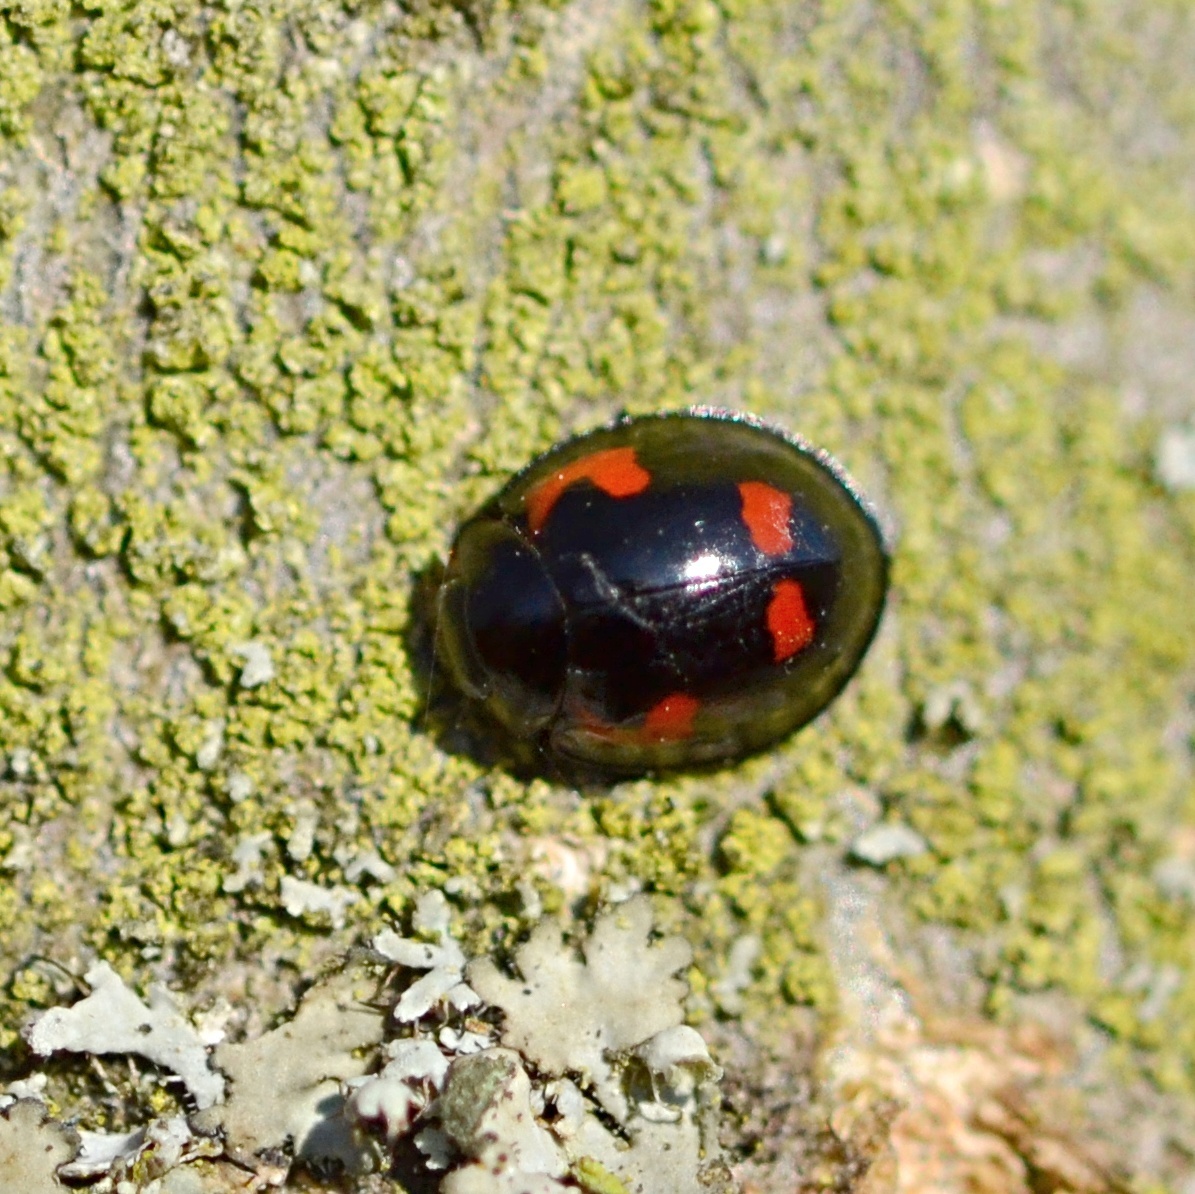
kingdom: Animalia
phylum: Arthropoda
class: Insecta
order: Coleoptera
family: Coccinellidae
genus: Brumus
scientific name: Brumus quadripustulatus
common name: Ladybird beetle
